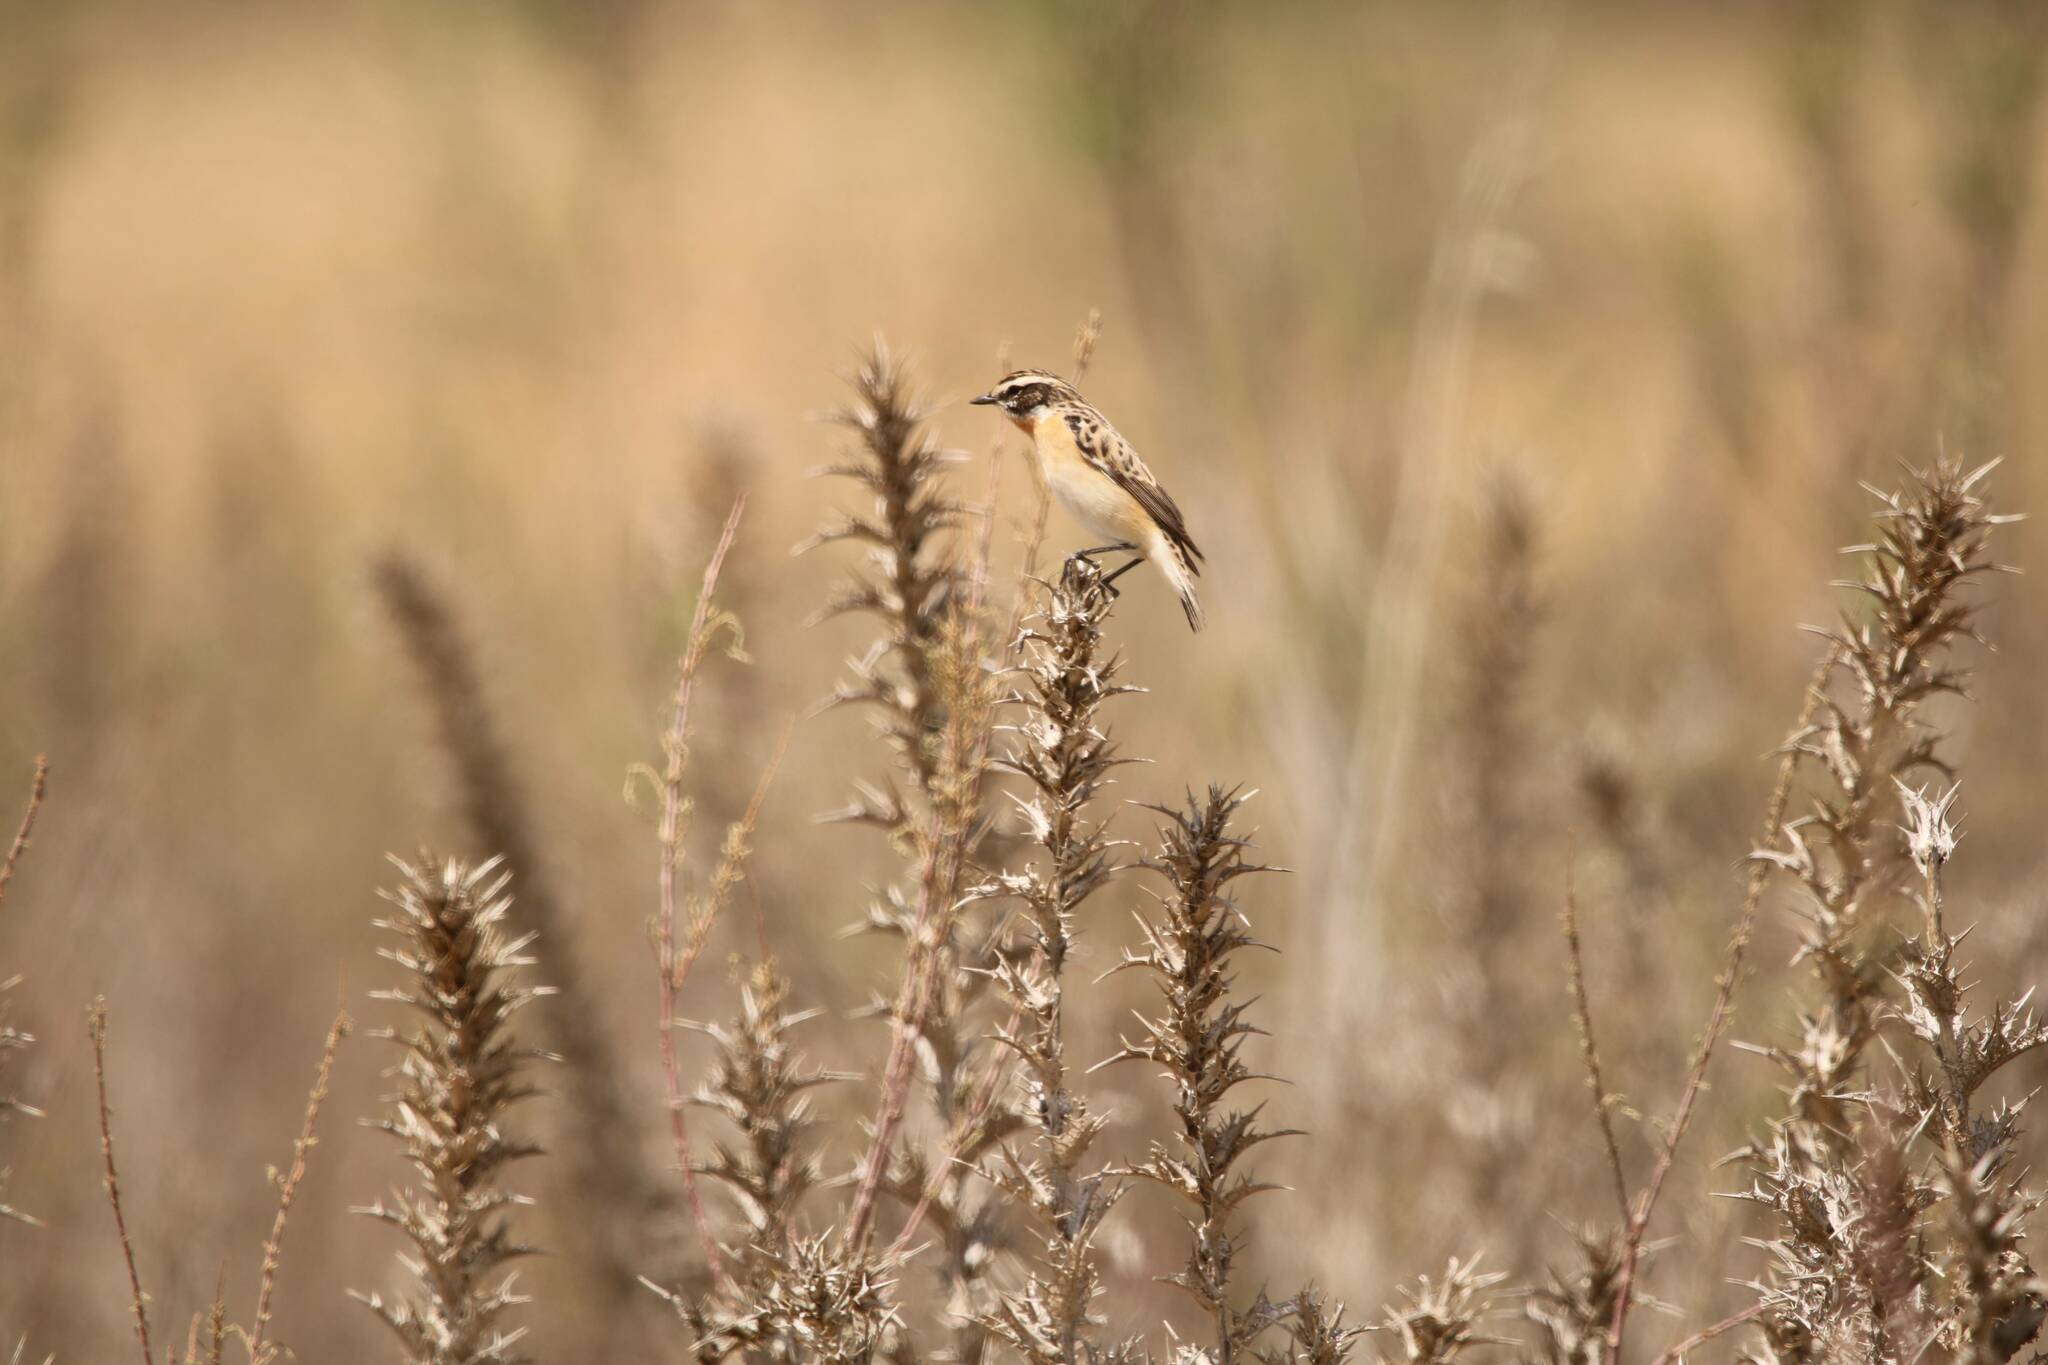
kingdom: Animalia
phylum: Chordata
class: Aves
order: Passeriformes
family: Muscicapidae
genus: Saxicola
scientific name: Saxicola rubetra
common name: Whinchat
